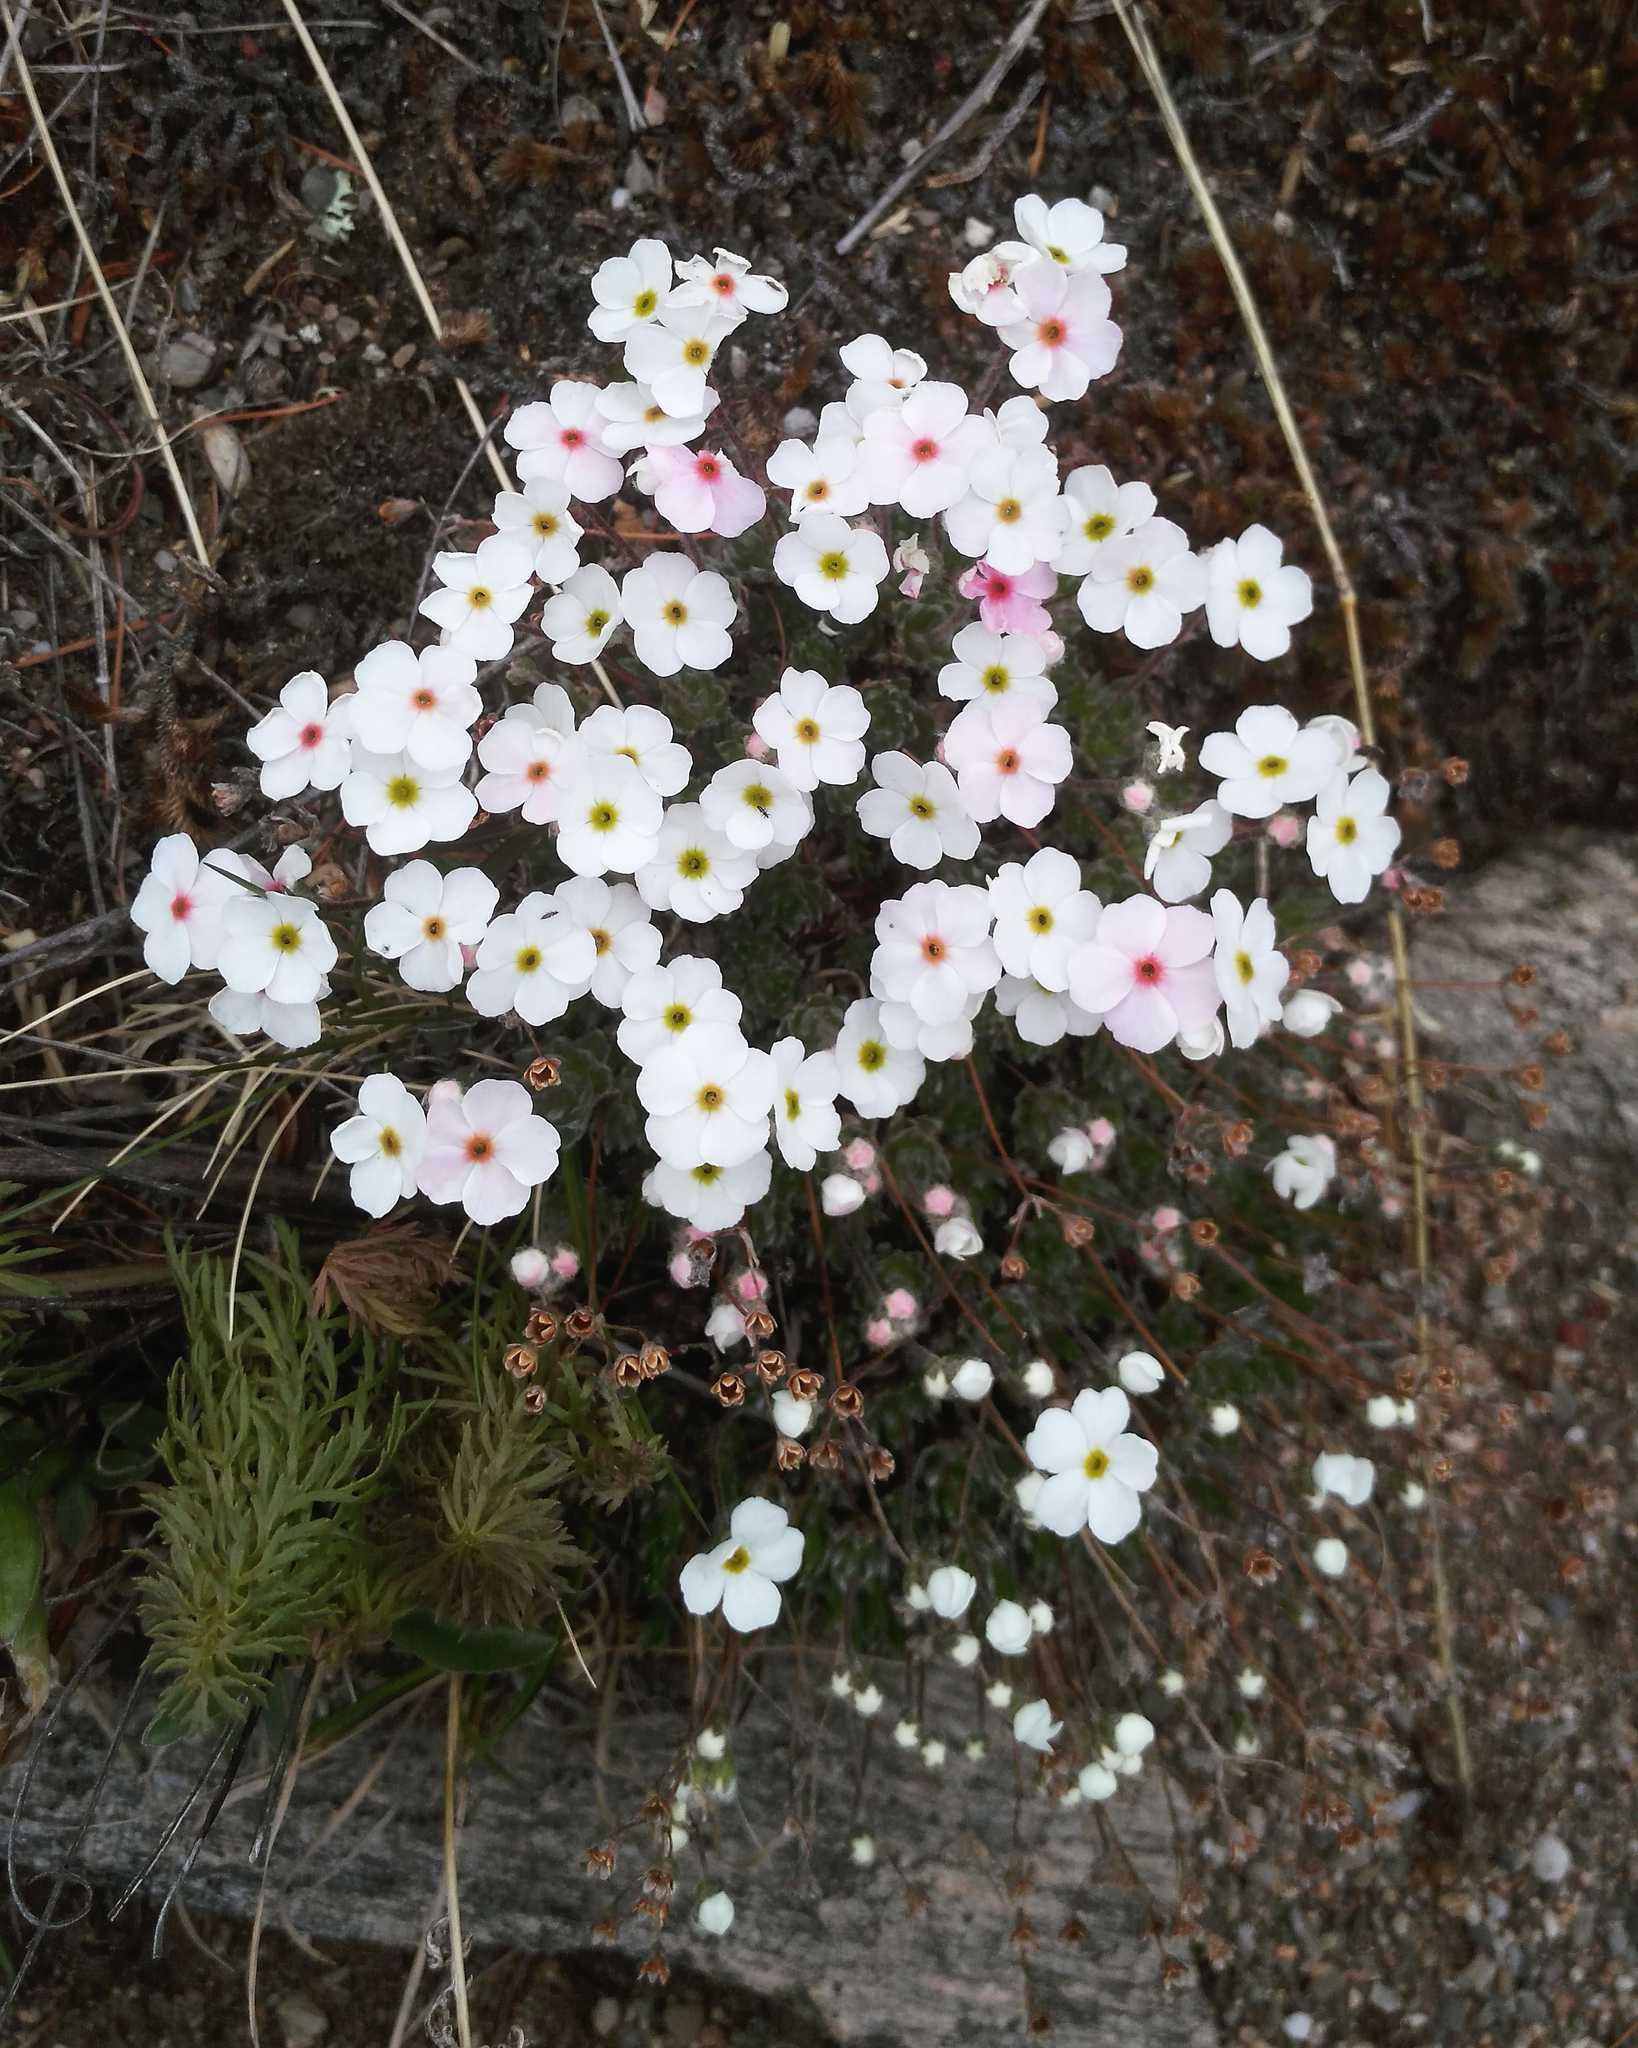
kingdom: Plantae
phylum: Tracheophyta
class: Magnoliopsida
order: Ericales
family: Primulaceae
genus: Androsace
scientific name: Androsace incana
